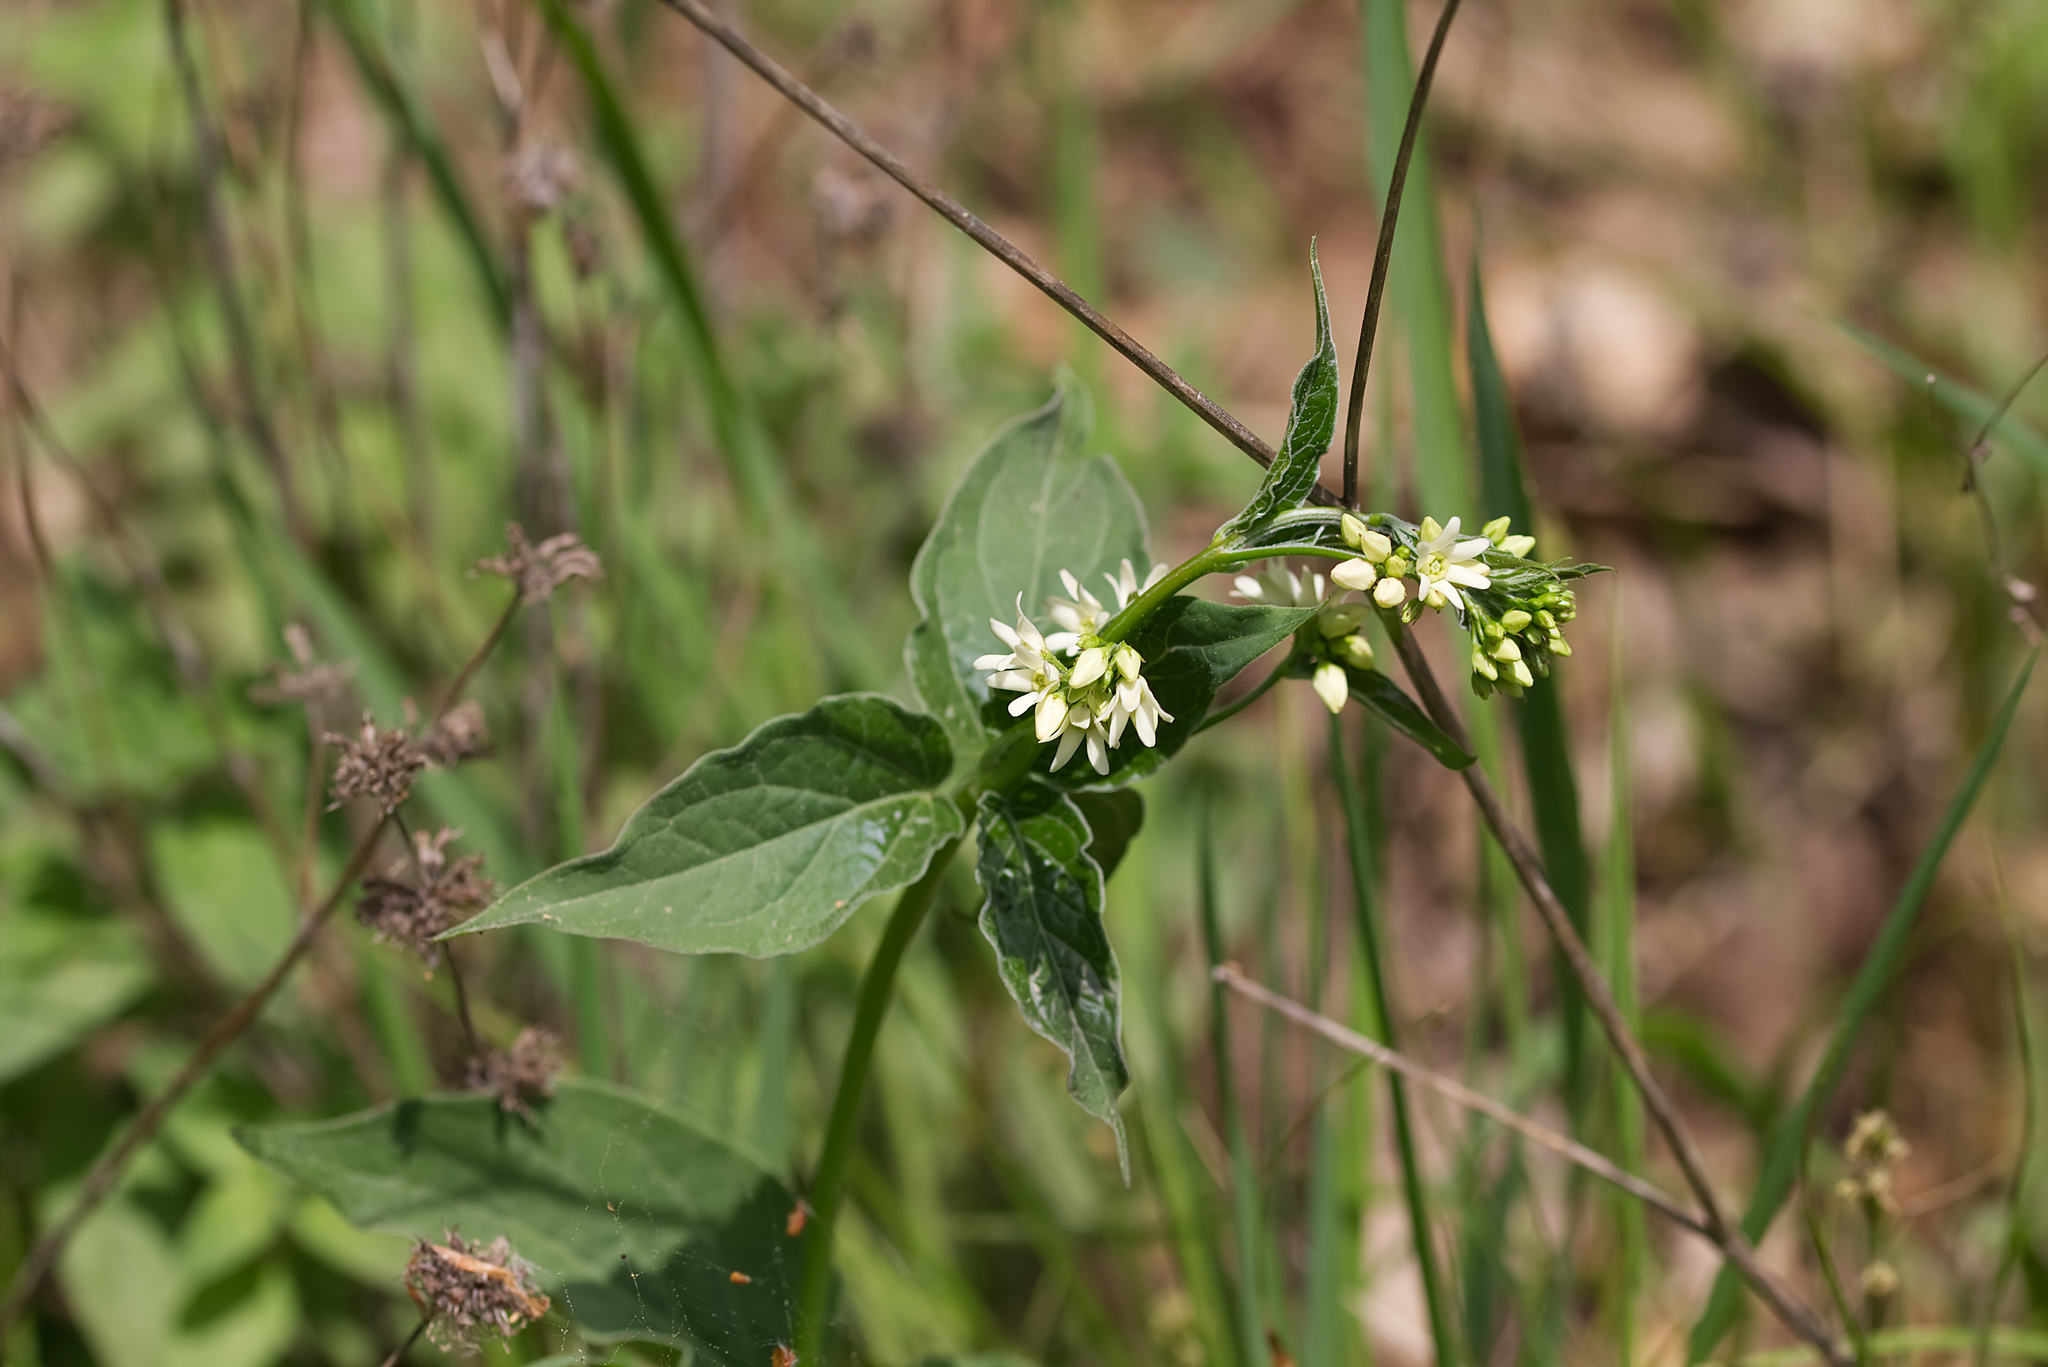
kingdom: Plantae
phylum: Tracheophyta
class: Magnoliopsida
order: Gentianales
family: Apocynaceae
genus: Vincetoxicum
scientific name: Vincetoxicum hirundinaria
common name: White swallowwort
